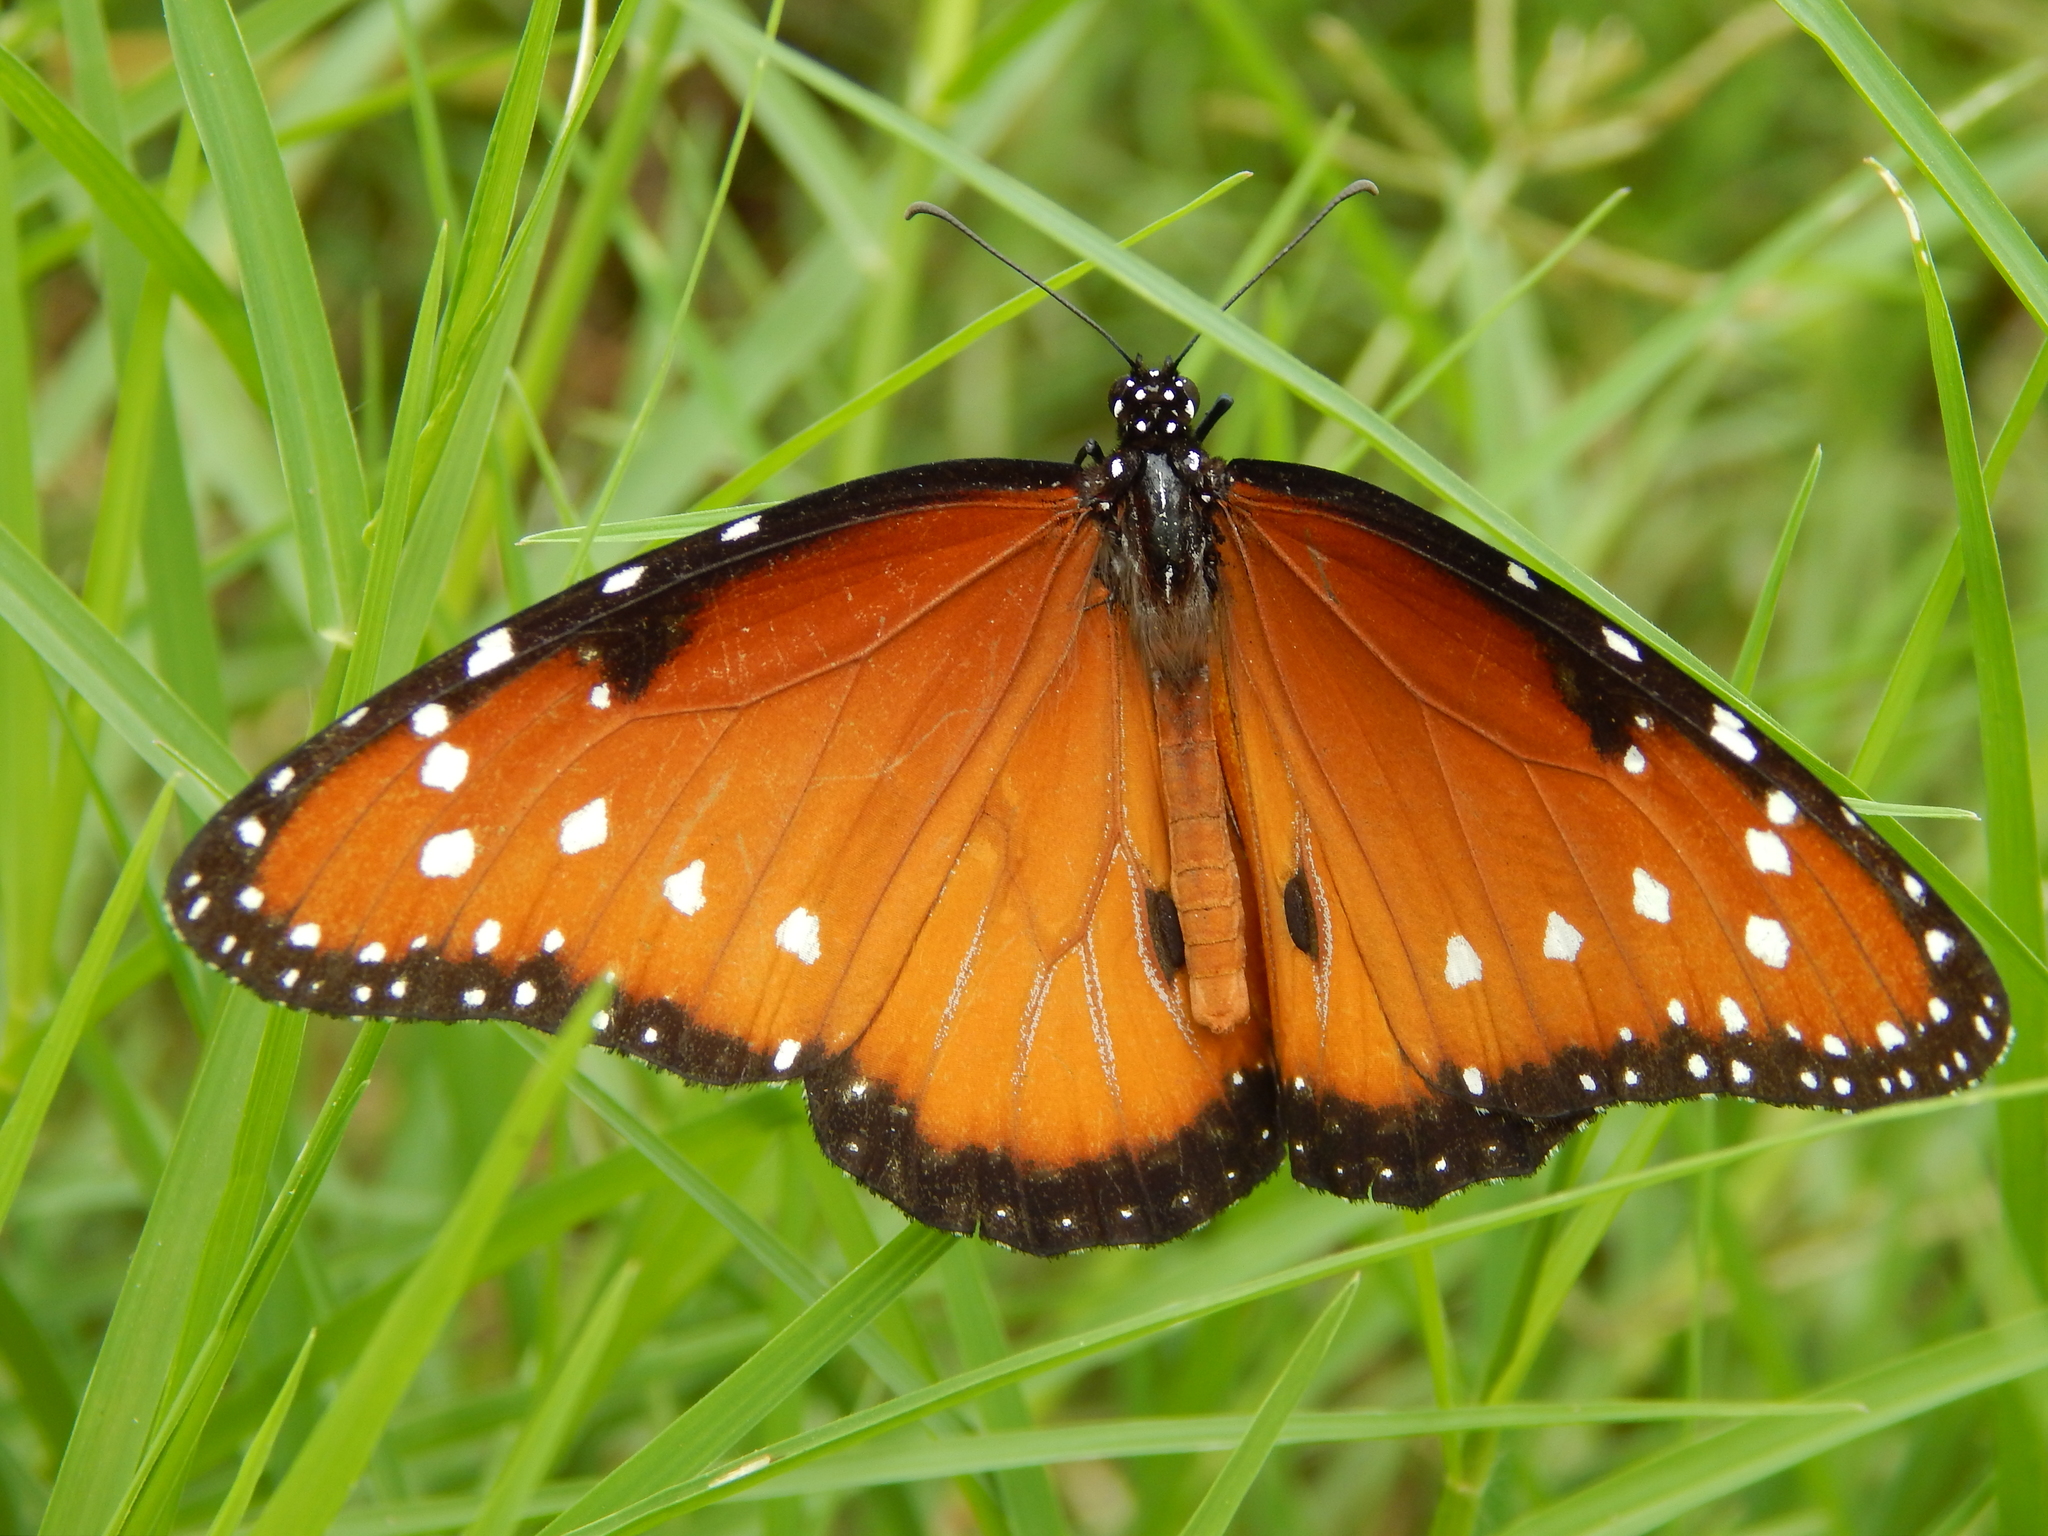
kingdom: Animalia
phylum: Arthropoda
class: Insecta
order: Lepidoptera
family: Nymphalidae
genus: Danaus
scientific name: Danaus gilippus
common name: Queen
